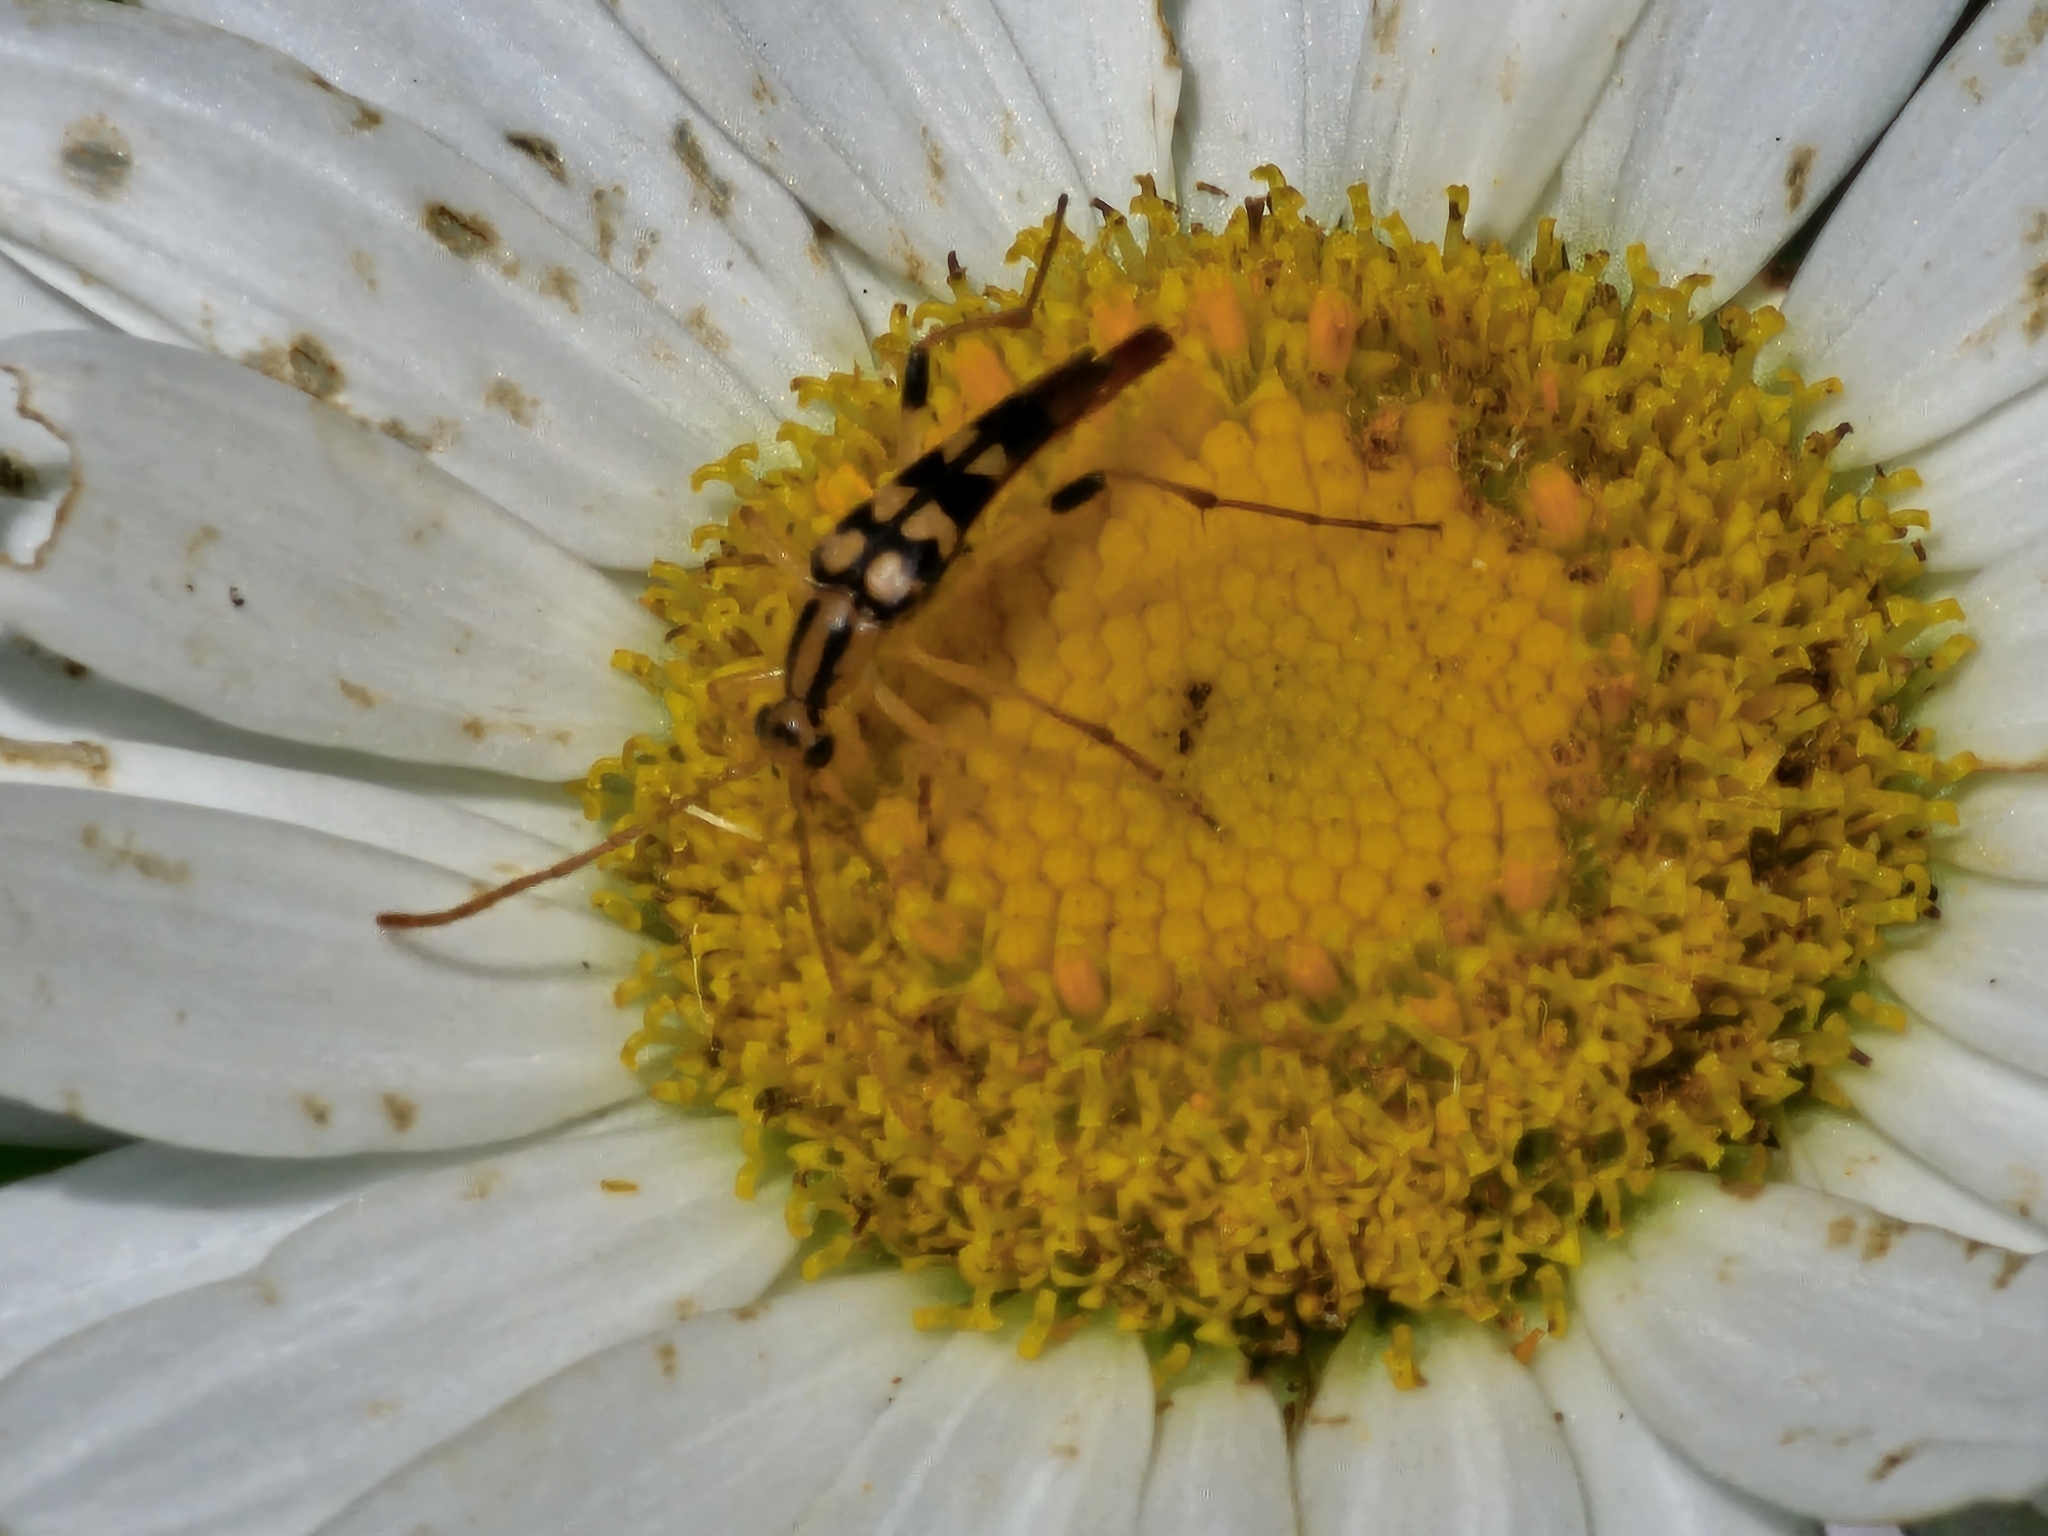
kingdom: Animalia
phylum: Arthropoda
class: Insecta
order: Coleoptera
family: Cerambycidae
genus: Strangalia
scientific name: Strangalia luteicornis
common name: Yellow-horned flower longhorn beetle
